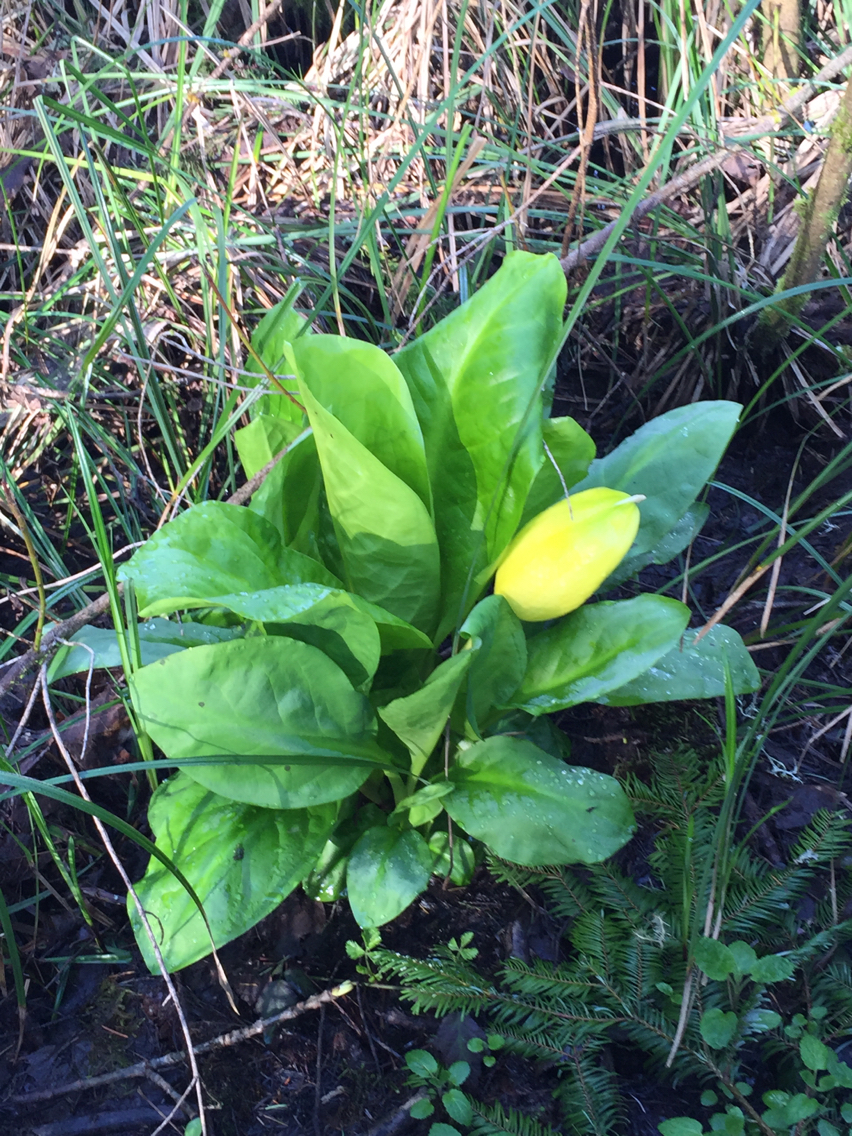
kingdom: Plantae
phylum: Tracheophyta
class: Liliopsida
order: Alismatales
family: Araceae
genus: Lysichiton
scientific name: Lysichiton americanus
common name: American skunk cabbage
